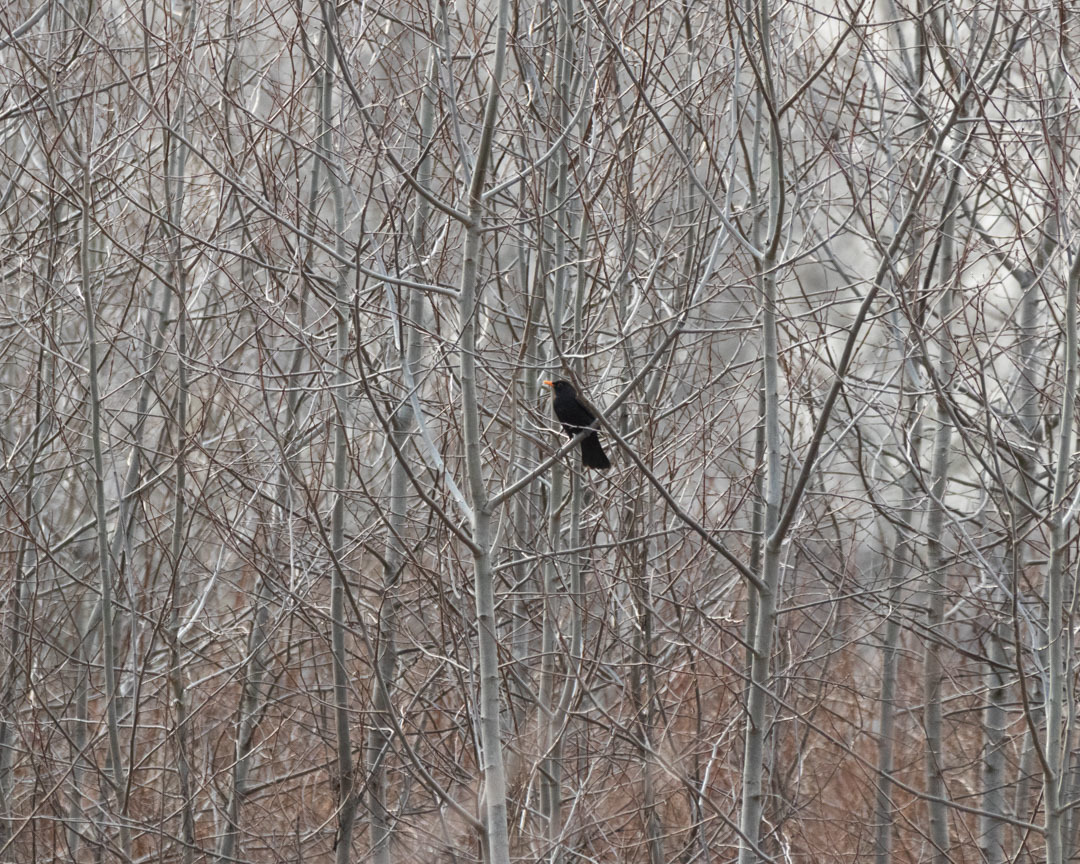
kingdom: Animalia
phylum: Chordata
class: Aves
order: Passeriformes
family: Turdidae
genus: Turdus
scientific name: Turdus merula
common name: Common blackbird
